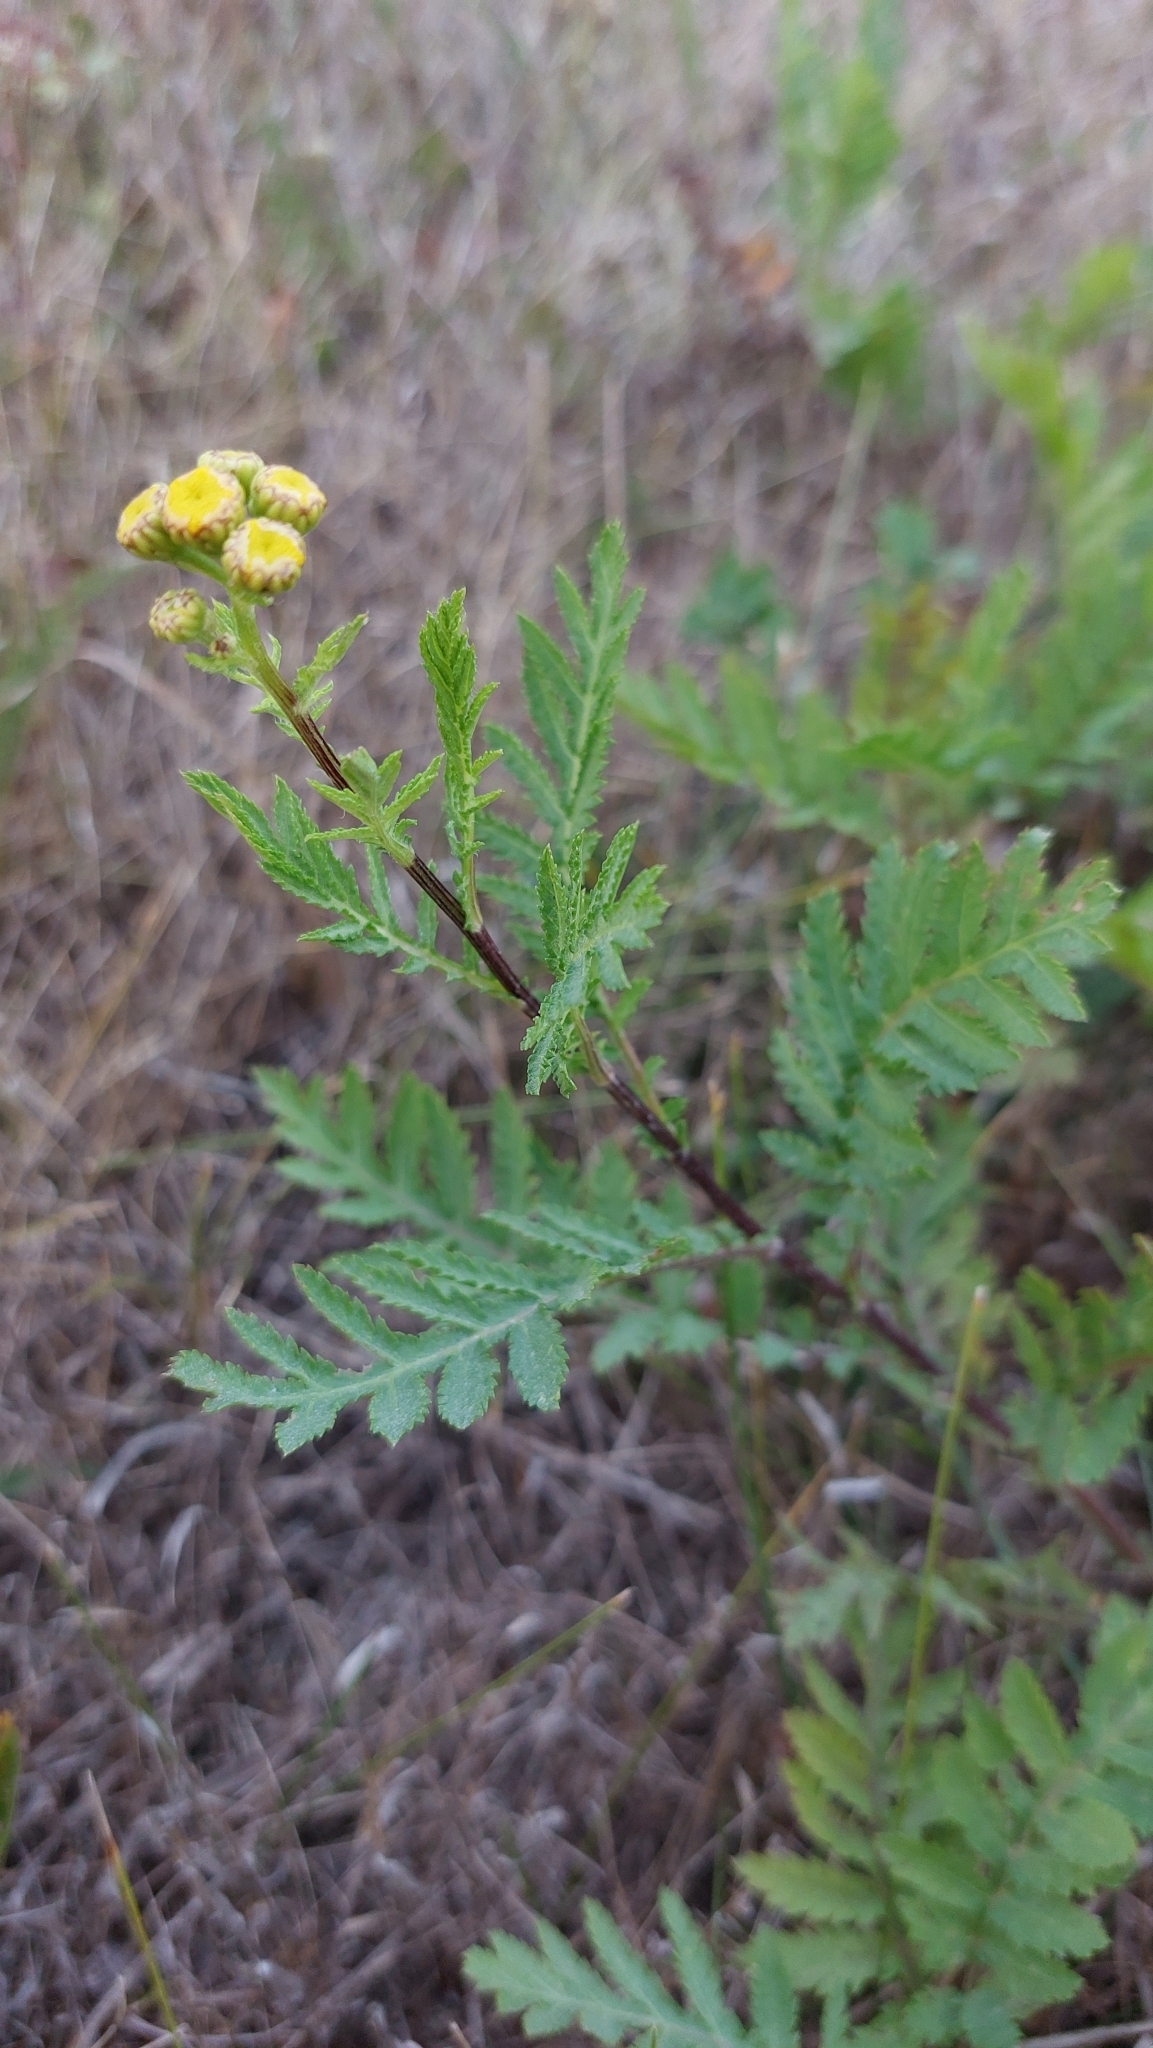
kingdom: Plantae
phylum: Tracheophyta
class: Magnoliopsida
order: Asterales
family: Asteraceae
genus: Tanacetum
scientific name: Tanacetum vulgare
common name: Common tansy
